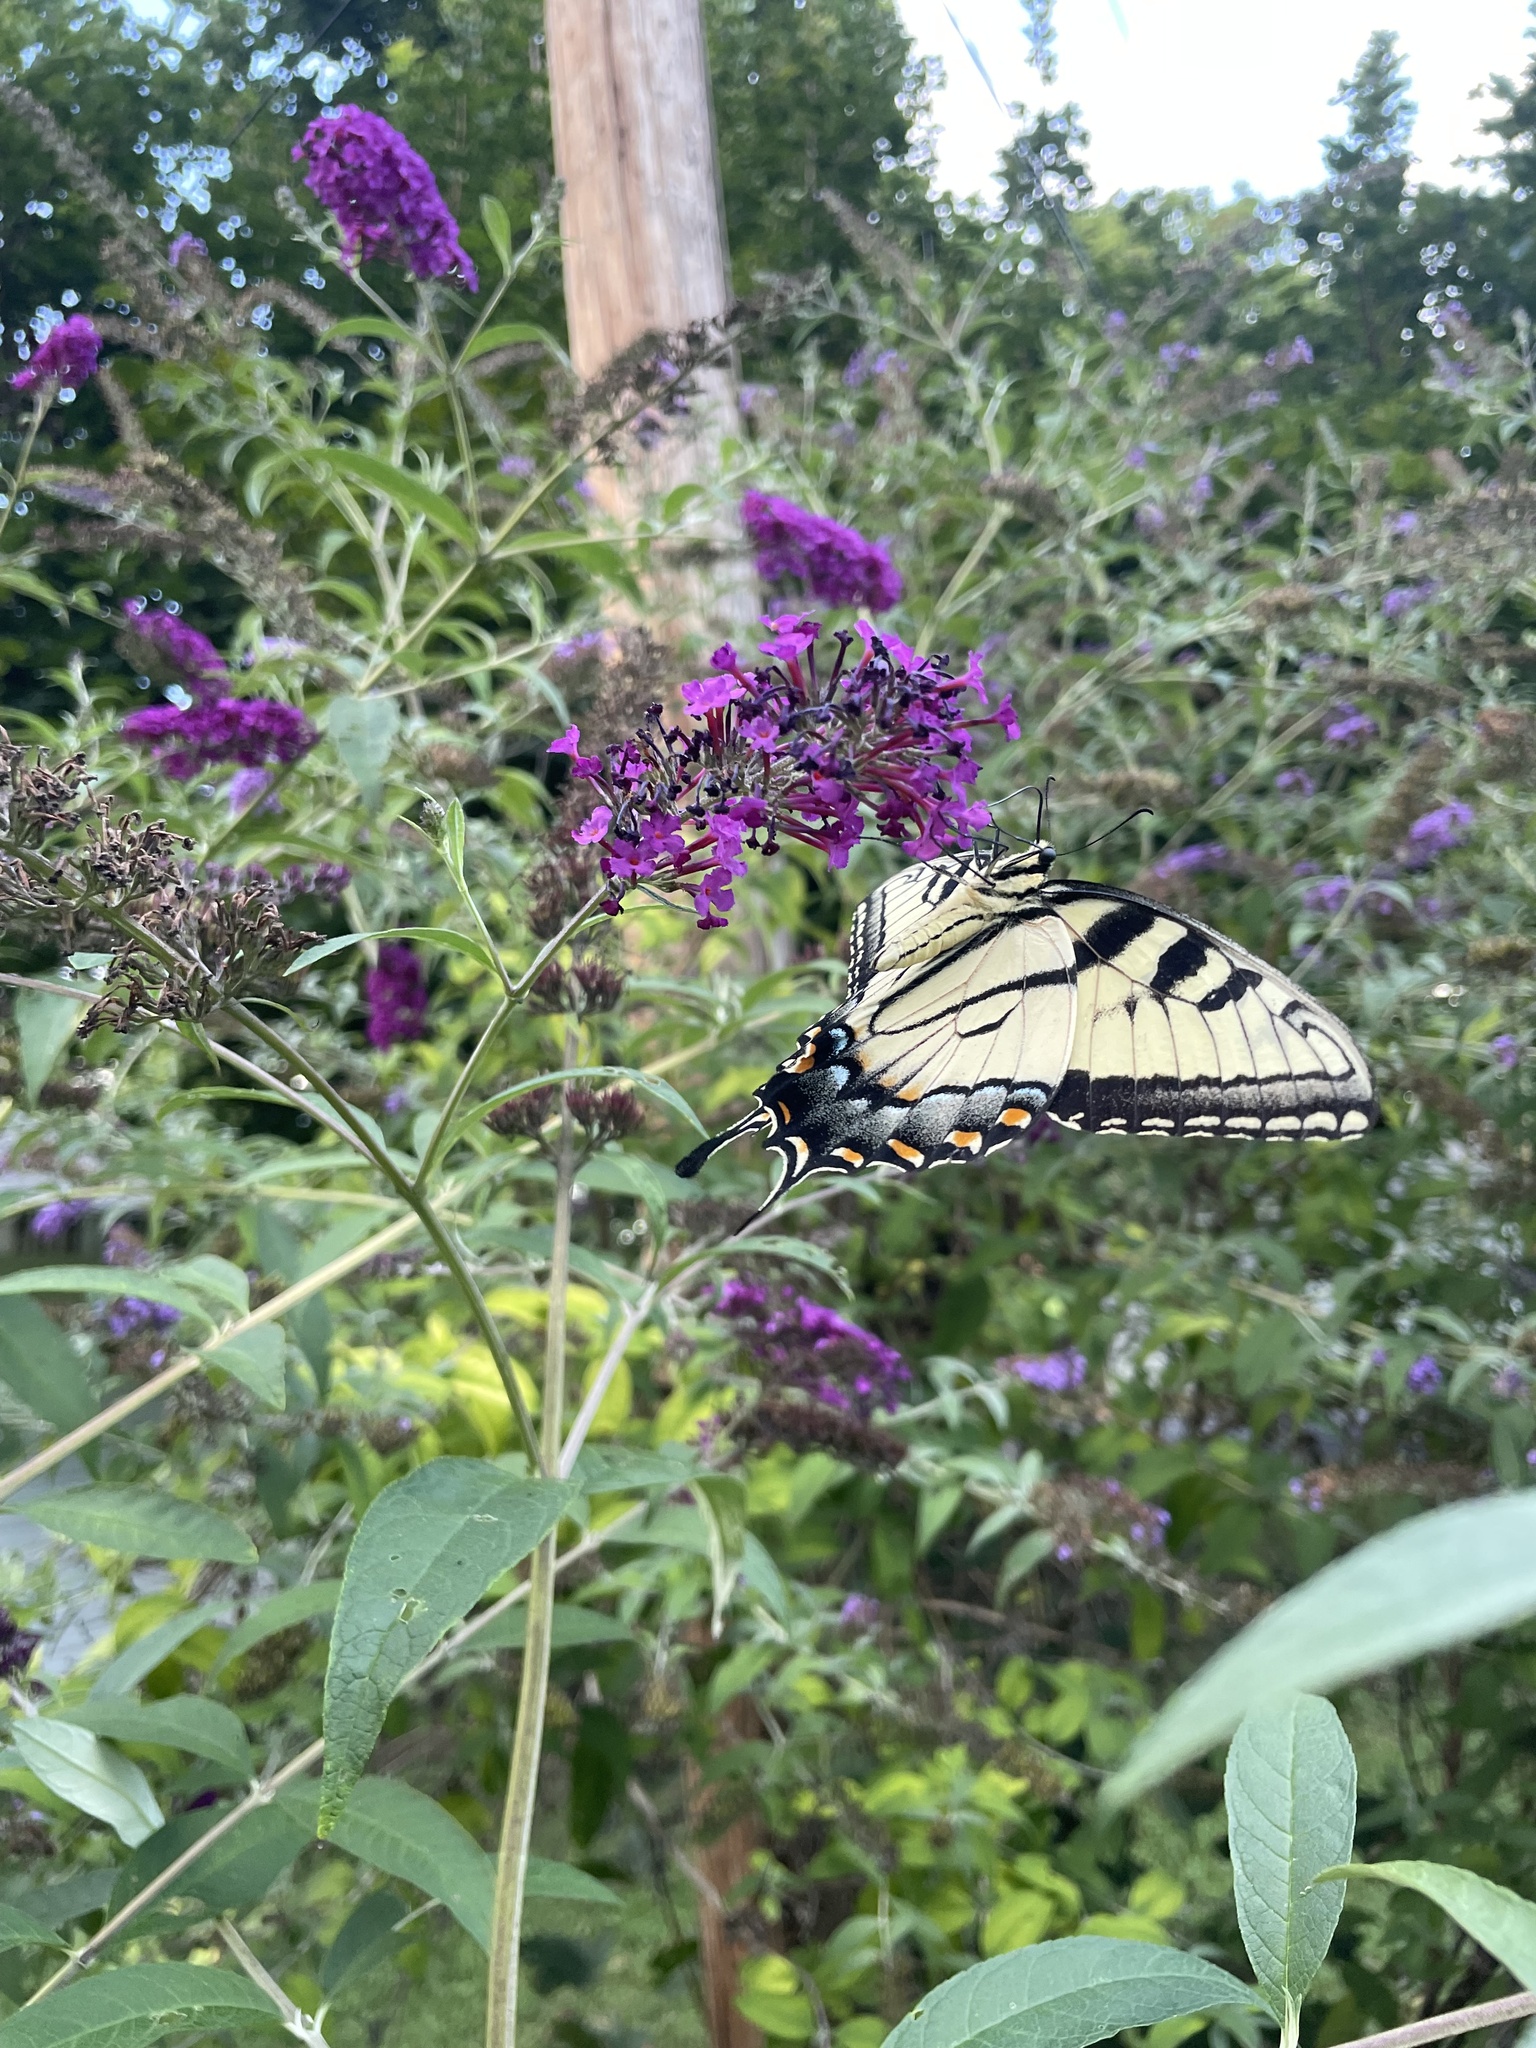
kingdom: Animalia
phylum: Arthropoda
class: Insecta
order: Lepidoptera
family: Papilionidae
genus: Papilio
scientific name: Papilio glaucus
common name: Tiger swallowtail
